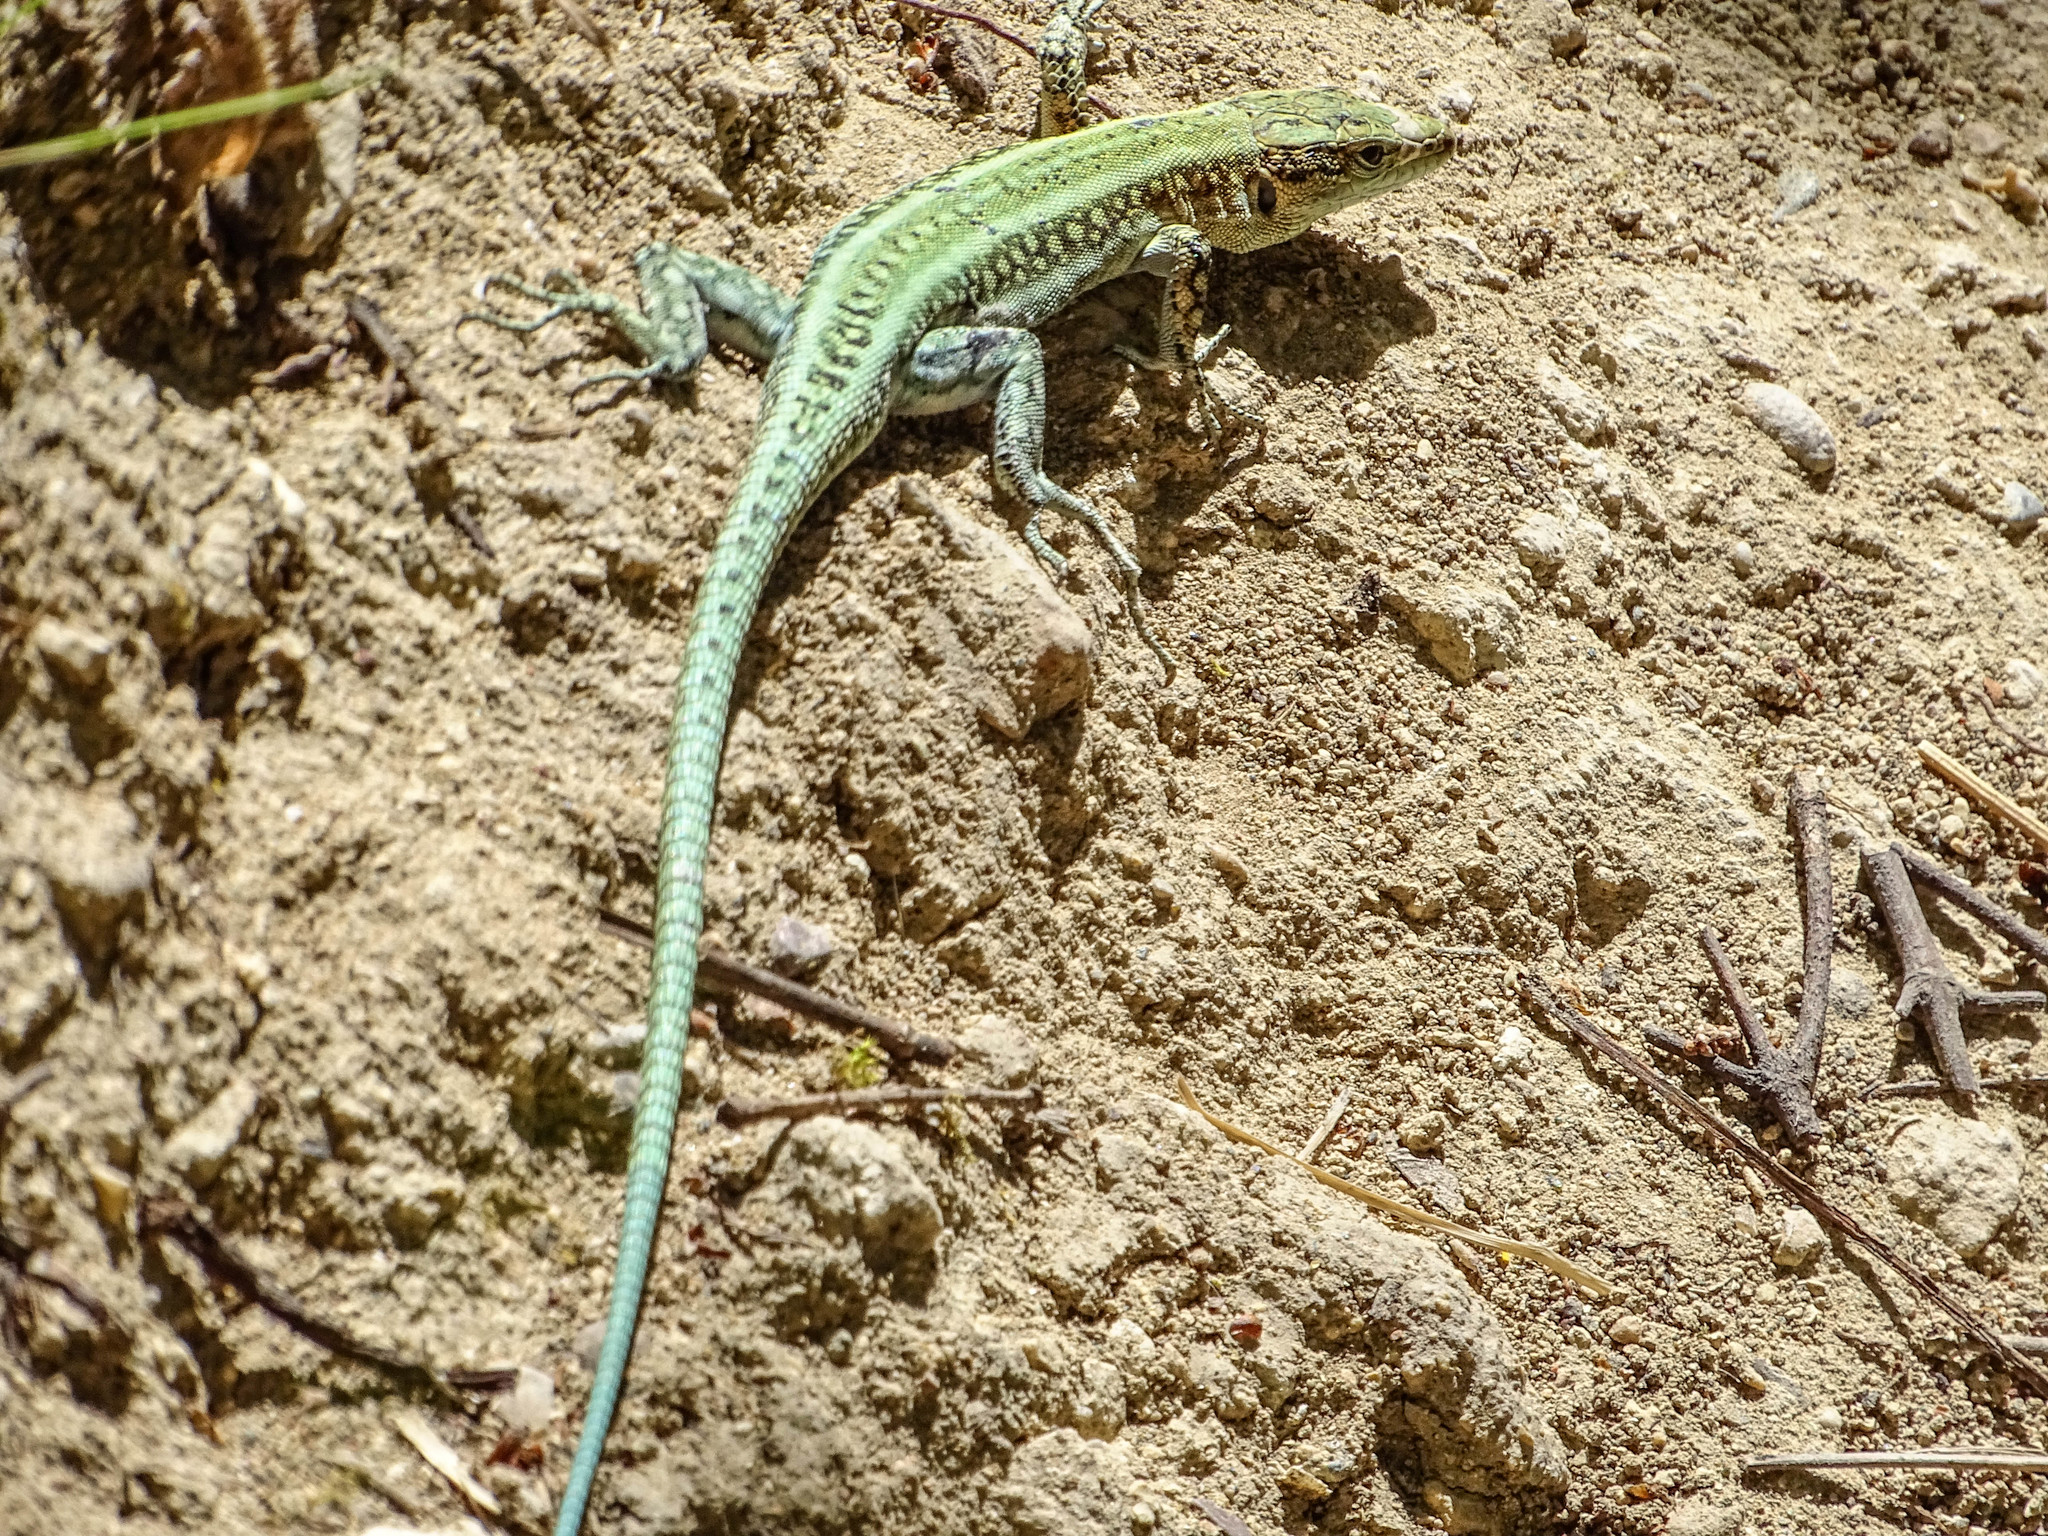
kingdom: Animalia
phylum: Chordata
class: Squamata
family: Lacertidae
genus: Anatololacerta
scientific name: Anatololacerta pelasgiana
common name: Pelasgian rock lizard
